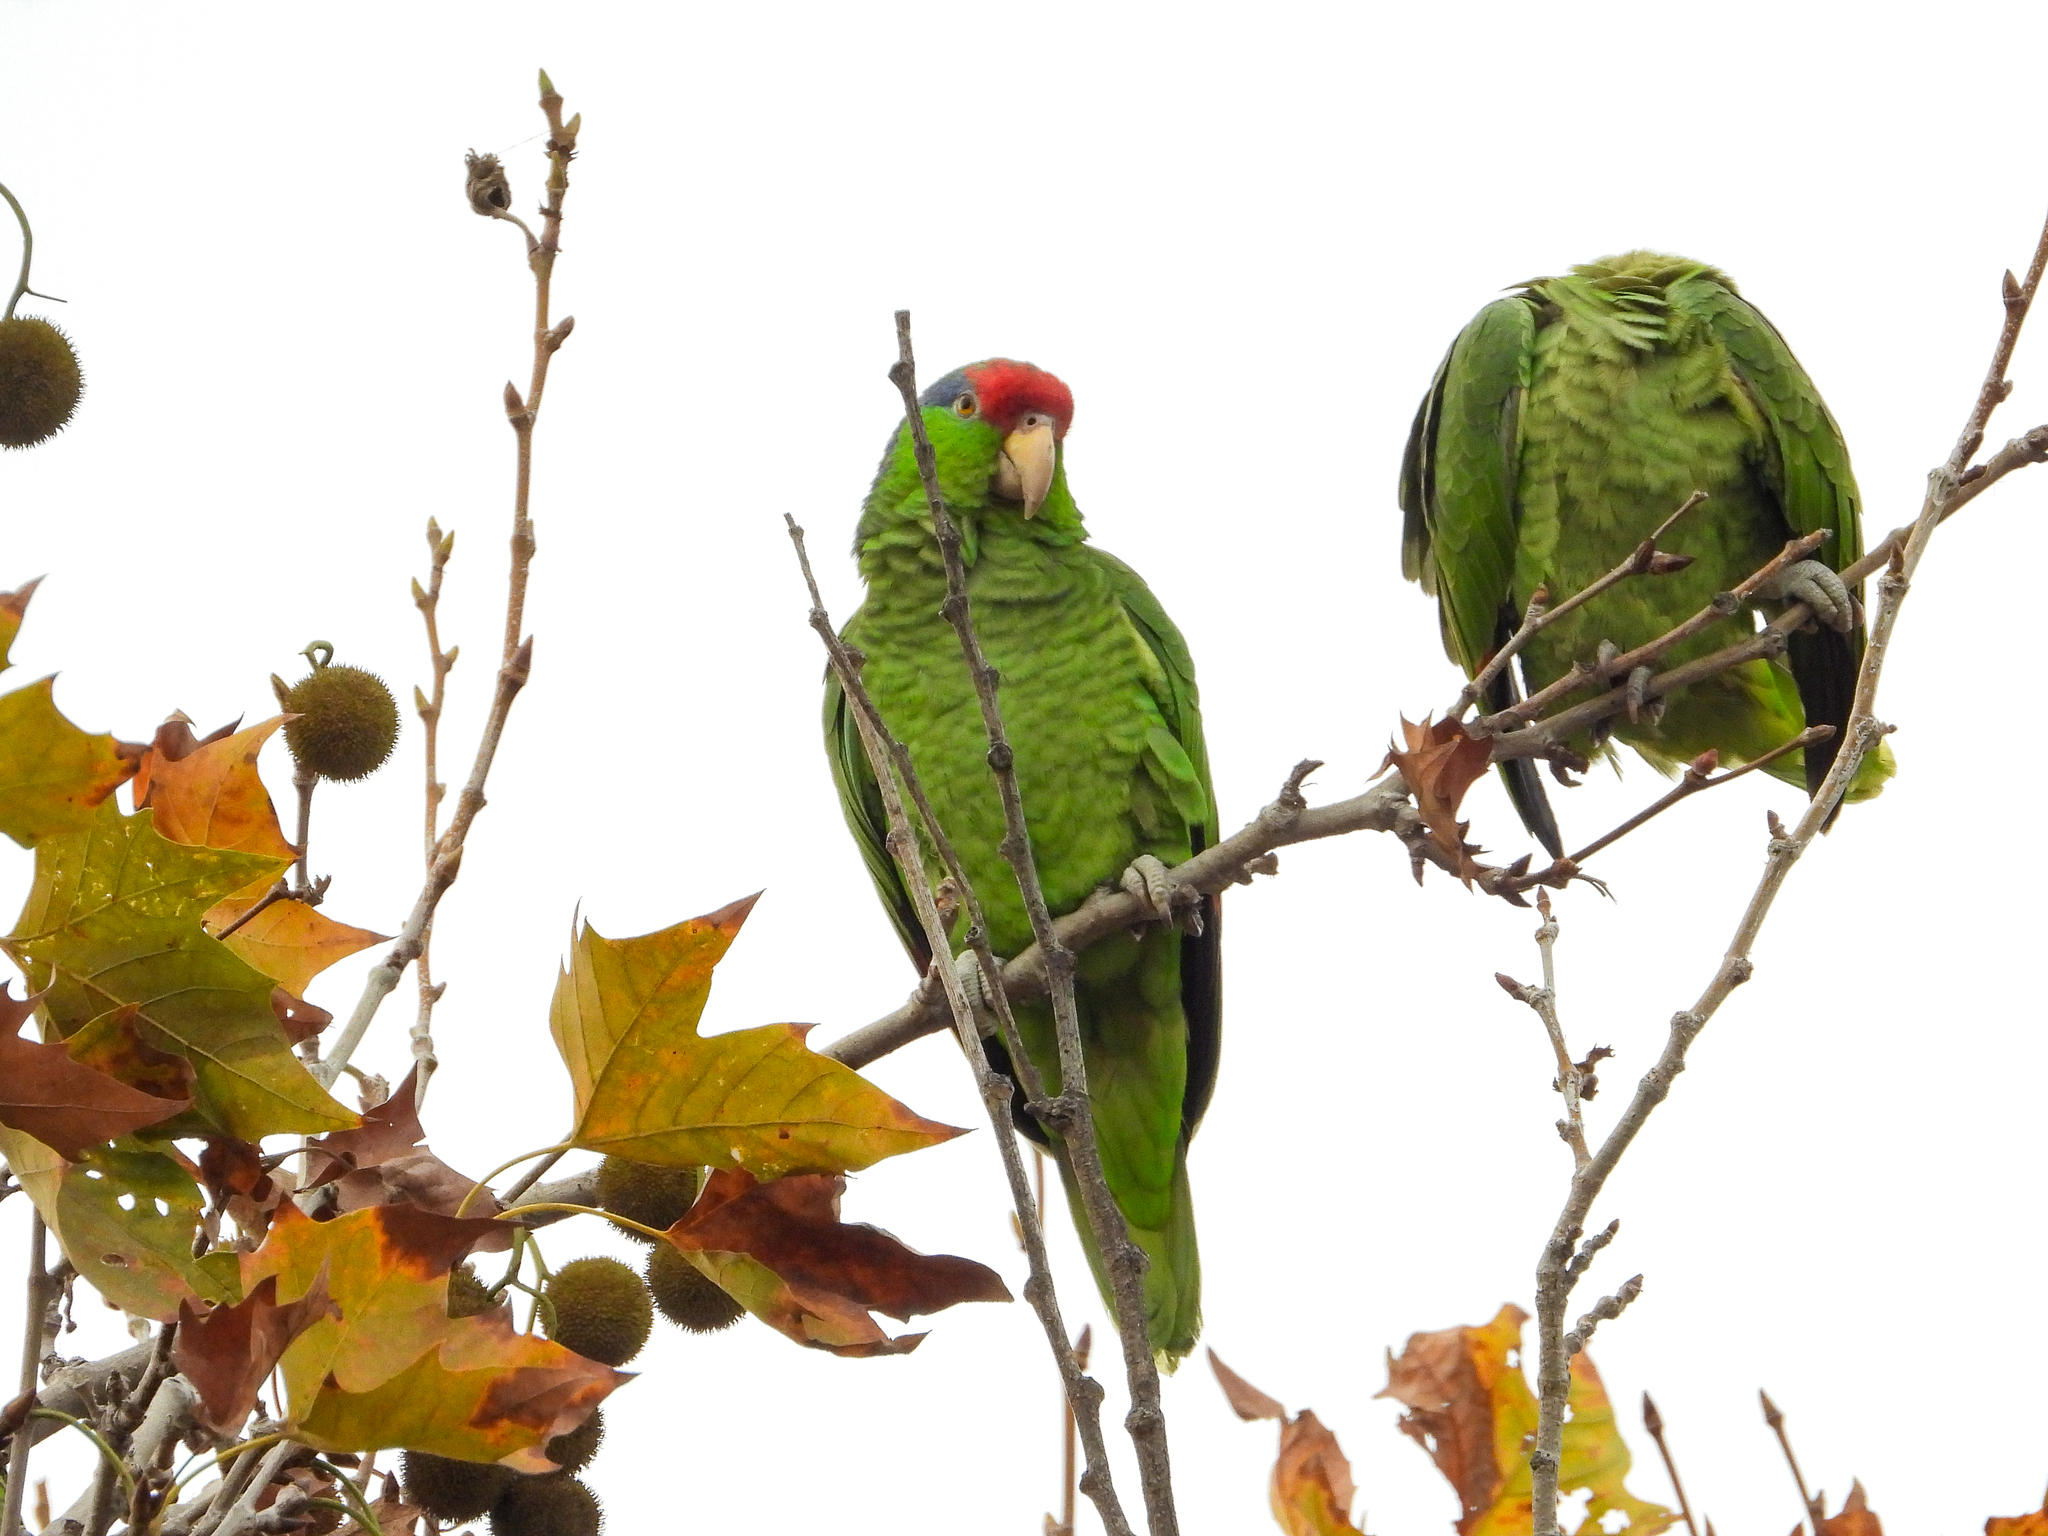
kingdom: Animalia
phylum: Chordata
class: Aves
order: Psittaciformes
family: Psittacidae
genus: Amazona
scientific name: Amazona viridigenalis
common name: Red-crowned amazon
